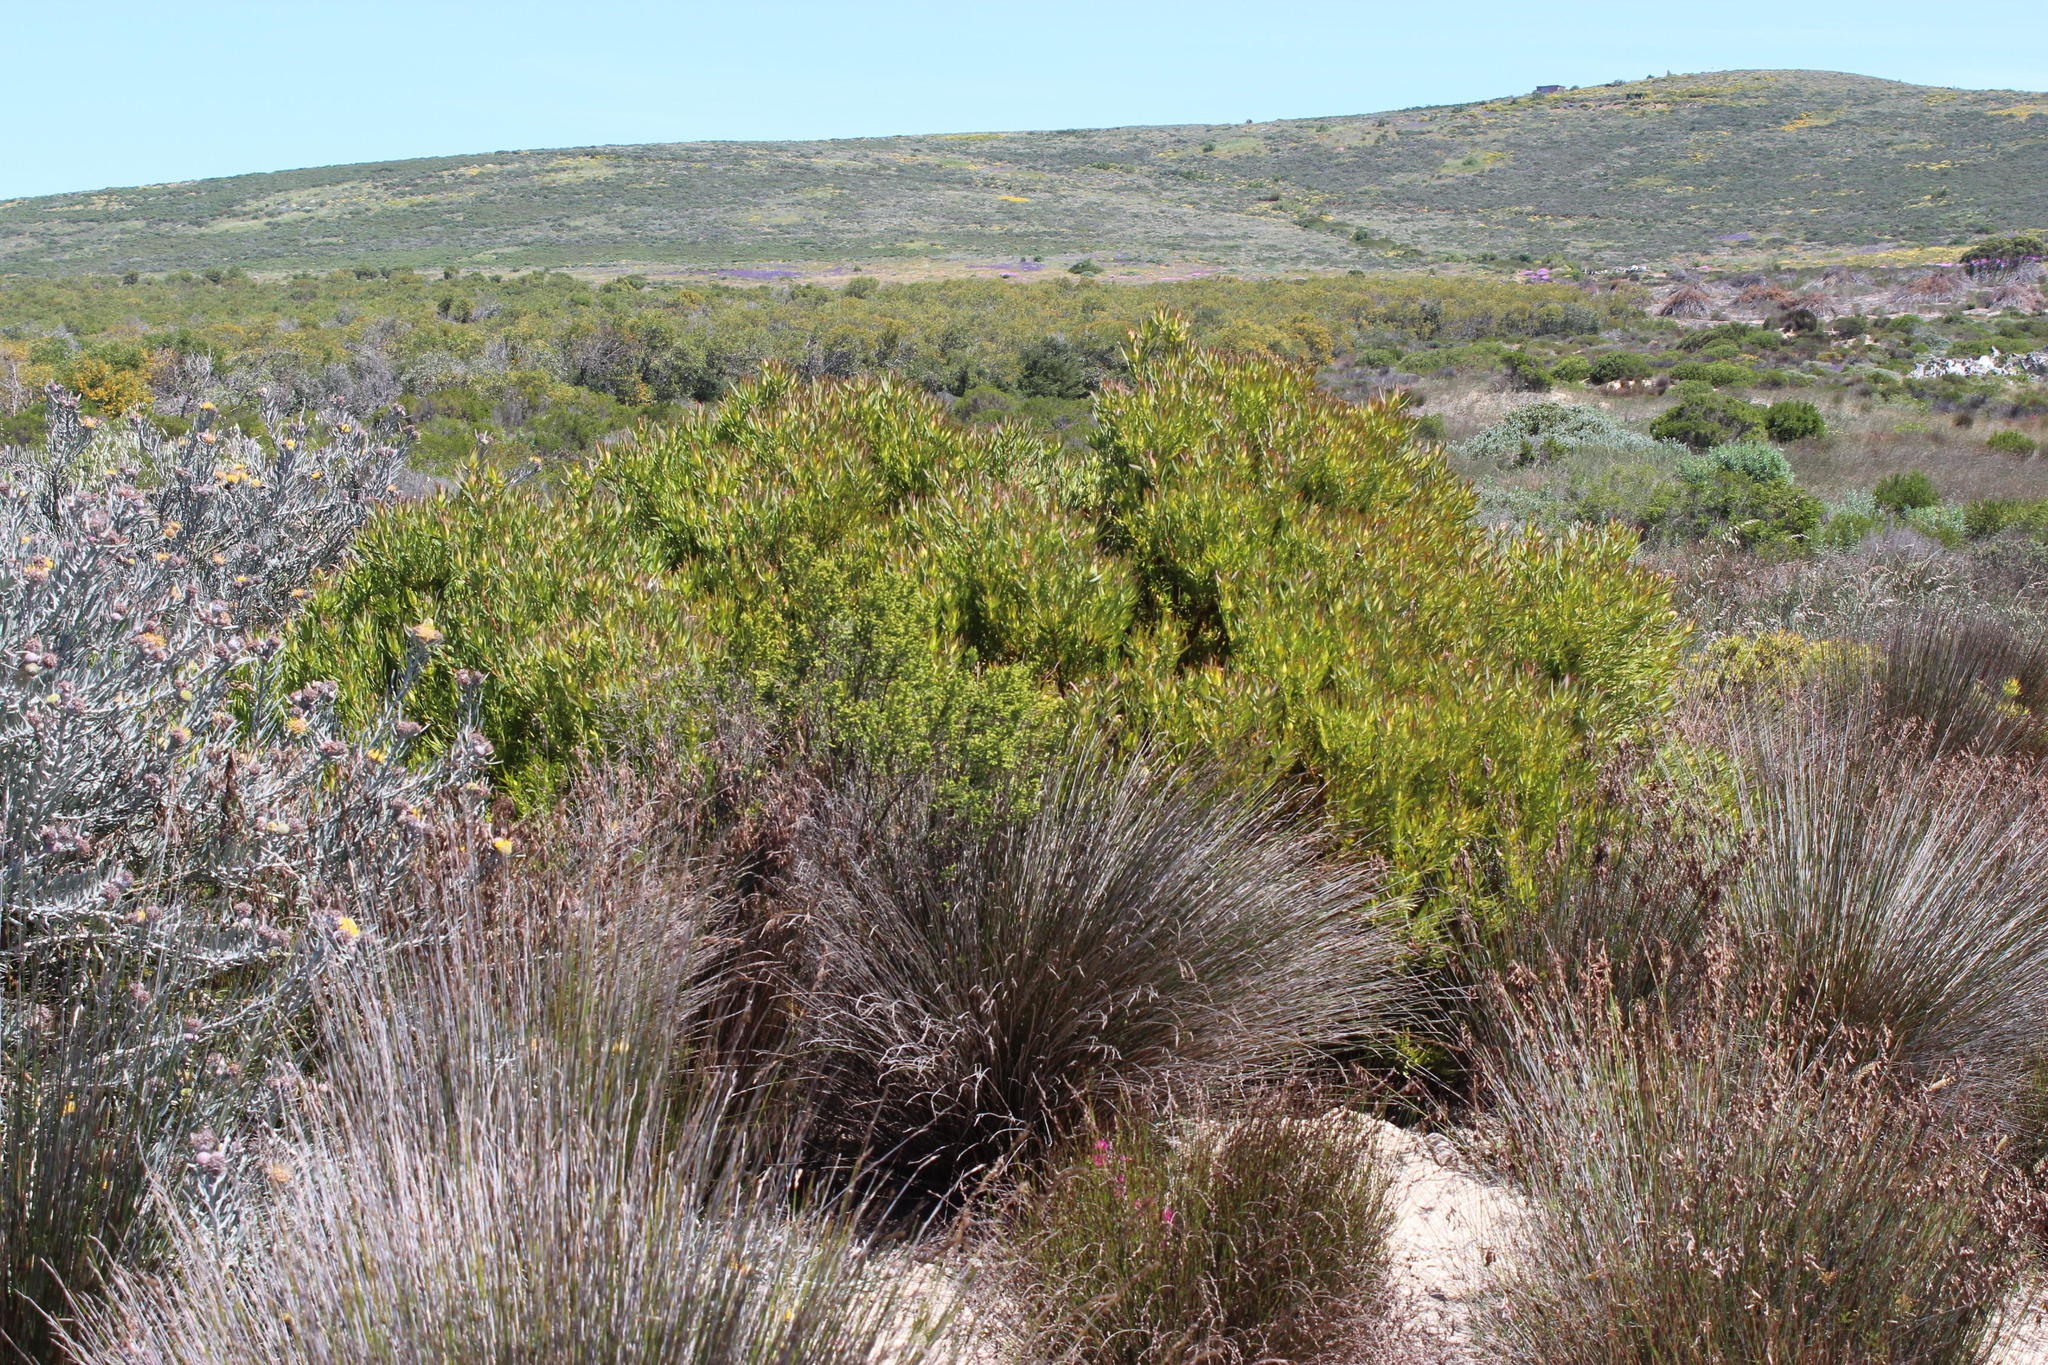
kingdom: Plantae
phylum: Tracheophyta
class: Magnoliopsida
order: Proteales
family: Proteaceae
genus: Leucadendron
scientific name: Leucadendron salignum
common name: Common sunshine conebush
